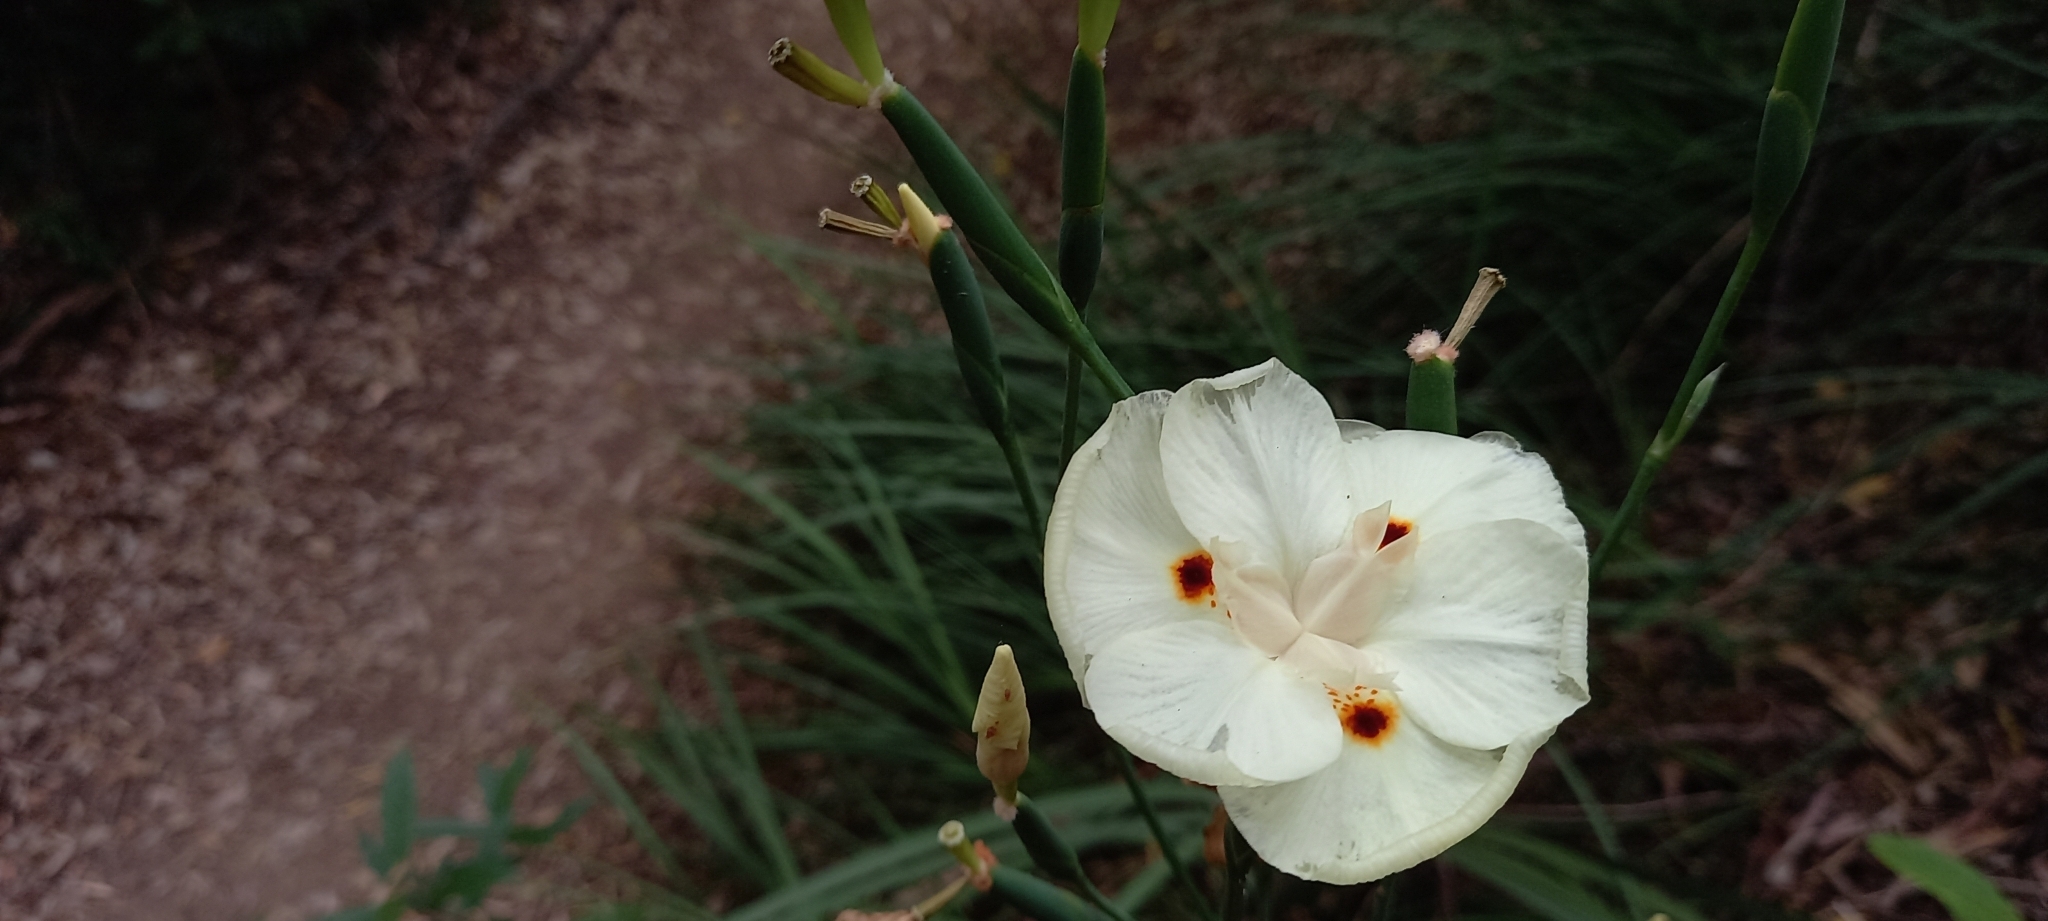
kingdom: Plantae
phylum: Tracheophyta
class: Liliopsida
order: Asparagales
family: Iridaceae
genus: Dietes
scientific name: Dietes bicolor
